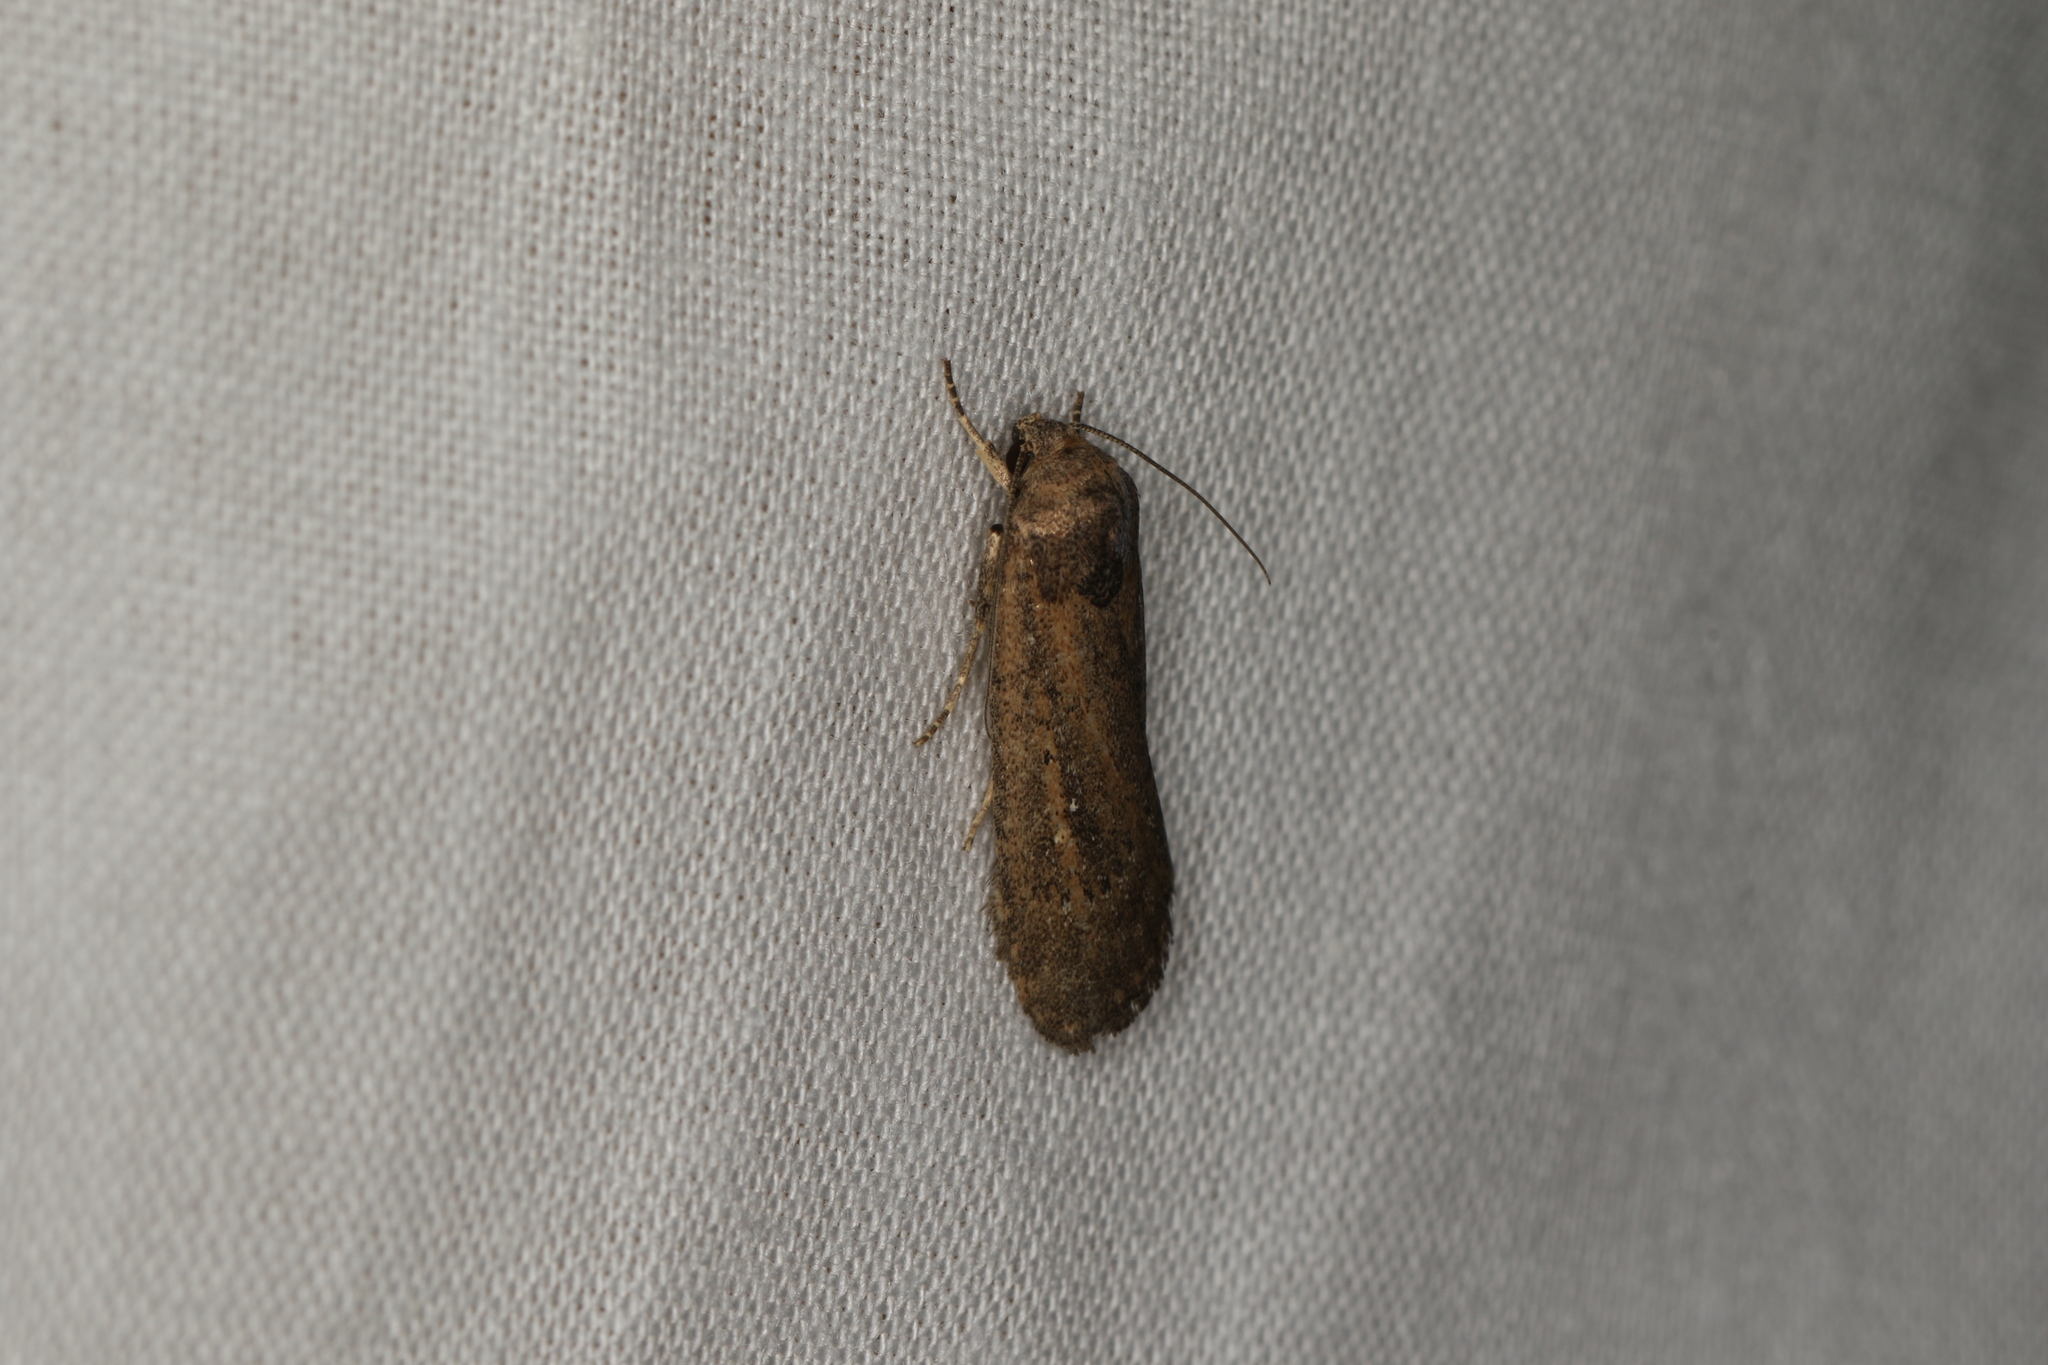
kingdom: Animalia
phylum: Arthropoda
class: Insecta
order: Lepidoptera
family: Noctuidae
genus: Athetis
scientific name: Athetis tenuis
